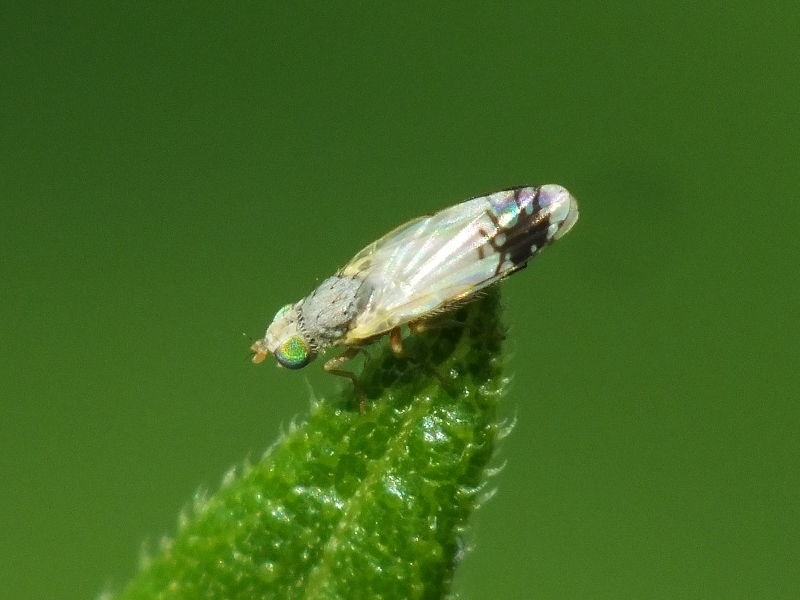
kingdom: Animalia
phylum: Arthropoda
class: Insecta
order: Diptera
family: Tephritidae
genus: Trupanea
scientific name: Trupanea stellata
